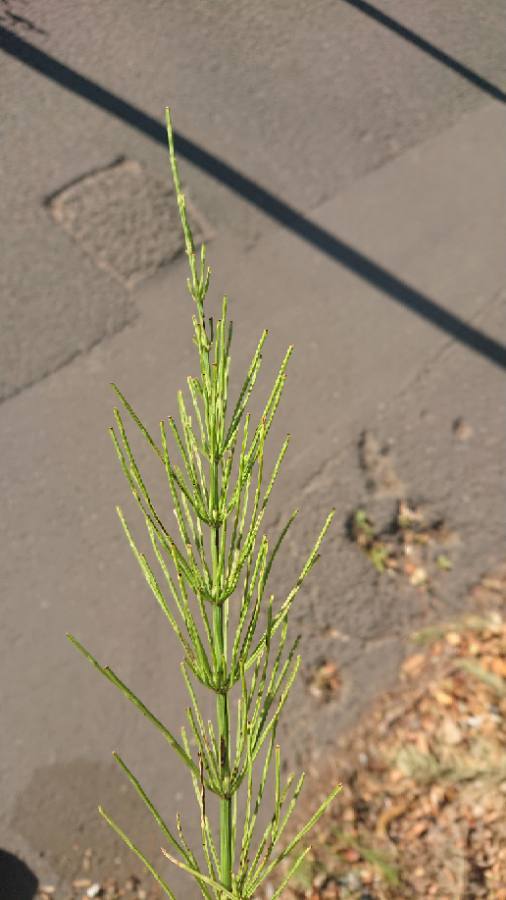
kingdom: Plantae
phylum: Tracheophyta
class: Polypodiopsida
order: Equisetales
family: Equisetaceae
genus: Equisetum
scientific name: Equisetum arvense
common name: Field horsetail
